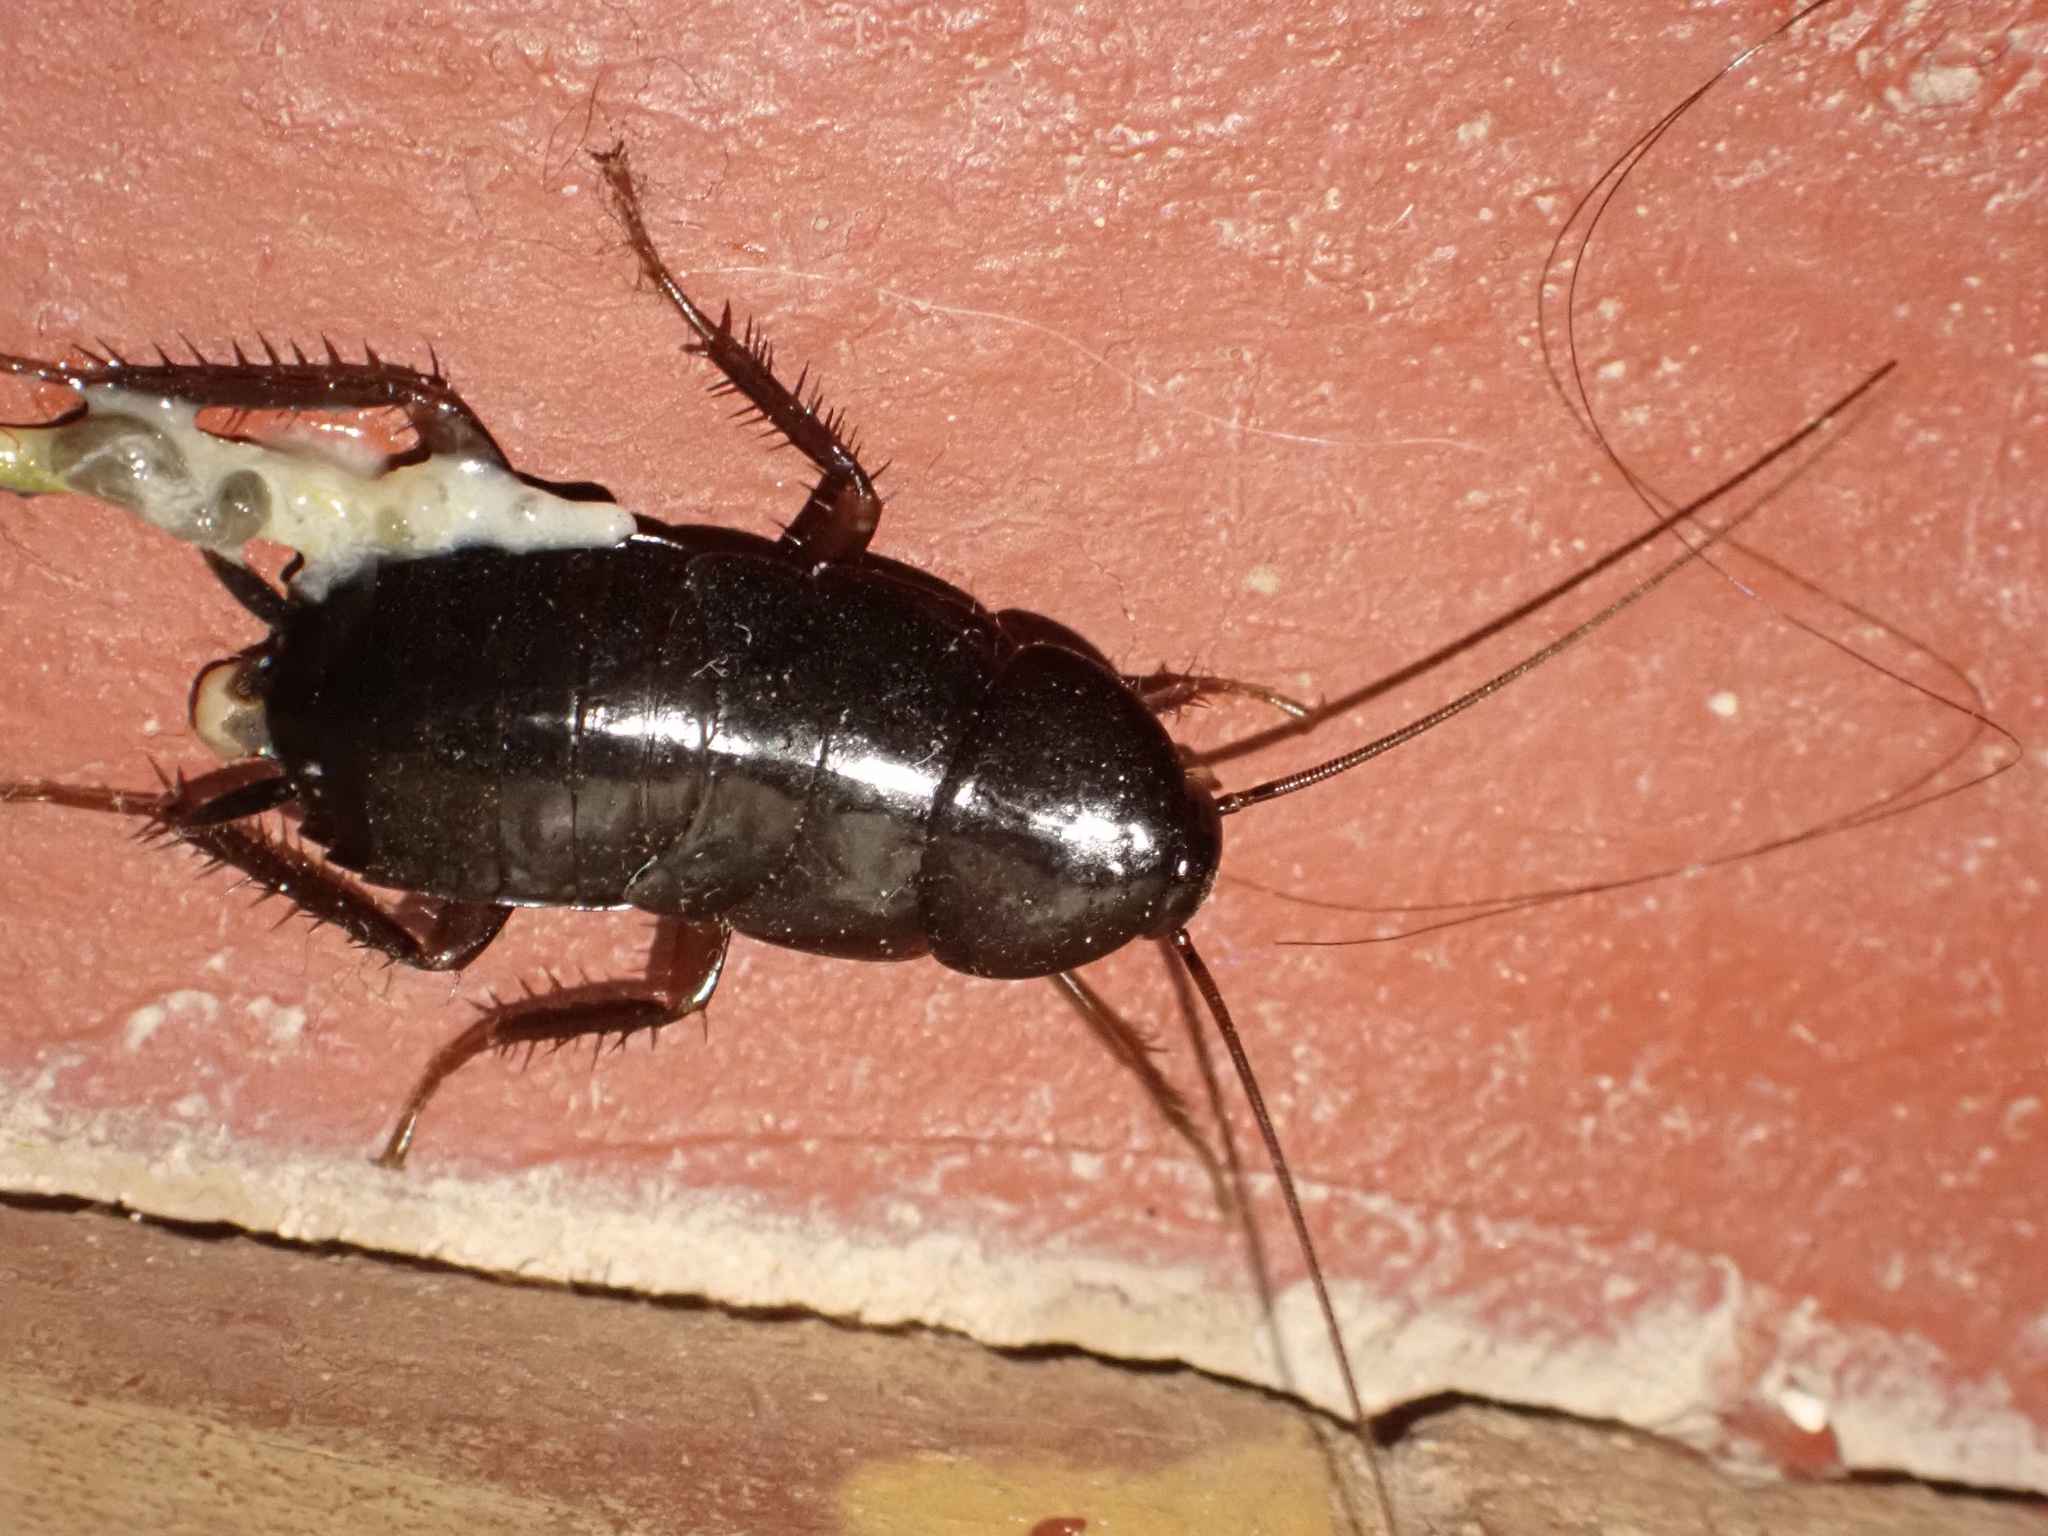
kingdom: Animalia
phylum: Arthropoda
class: Insecta
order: Blattodea
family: Blattidae
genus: Blatta
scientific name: Blatta orientalis
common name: Oriental cockroach
